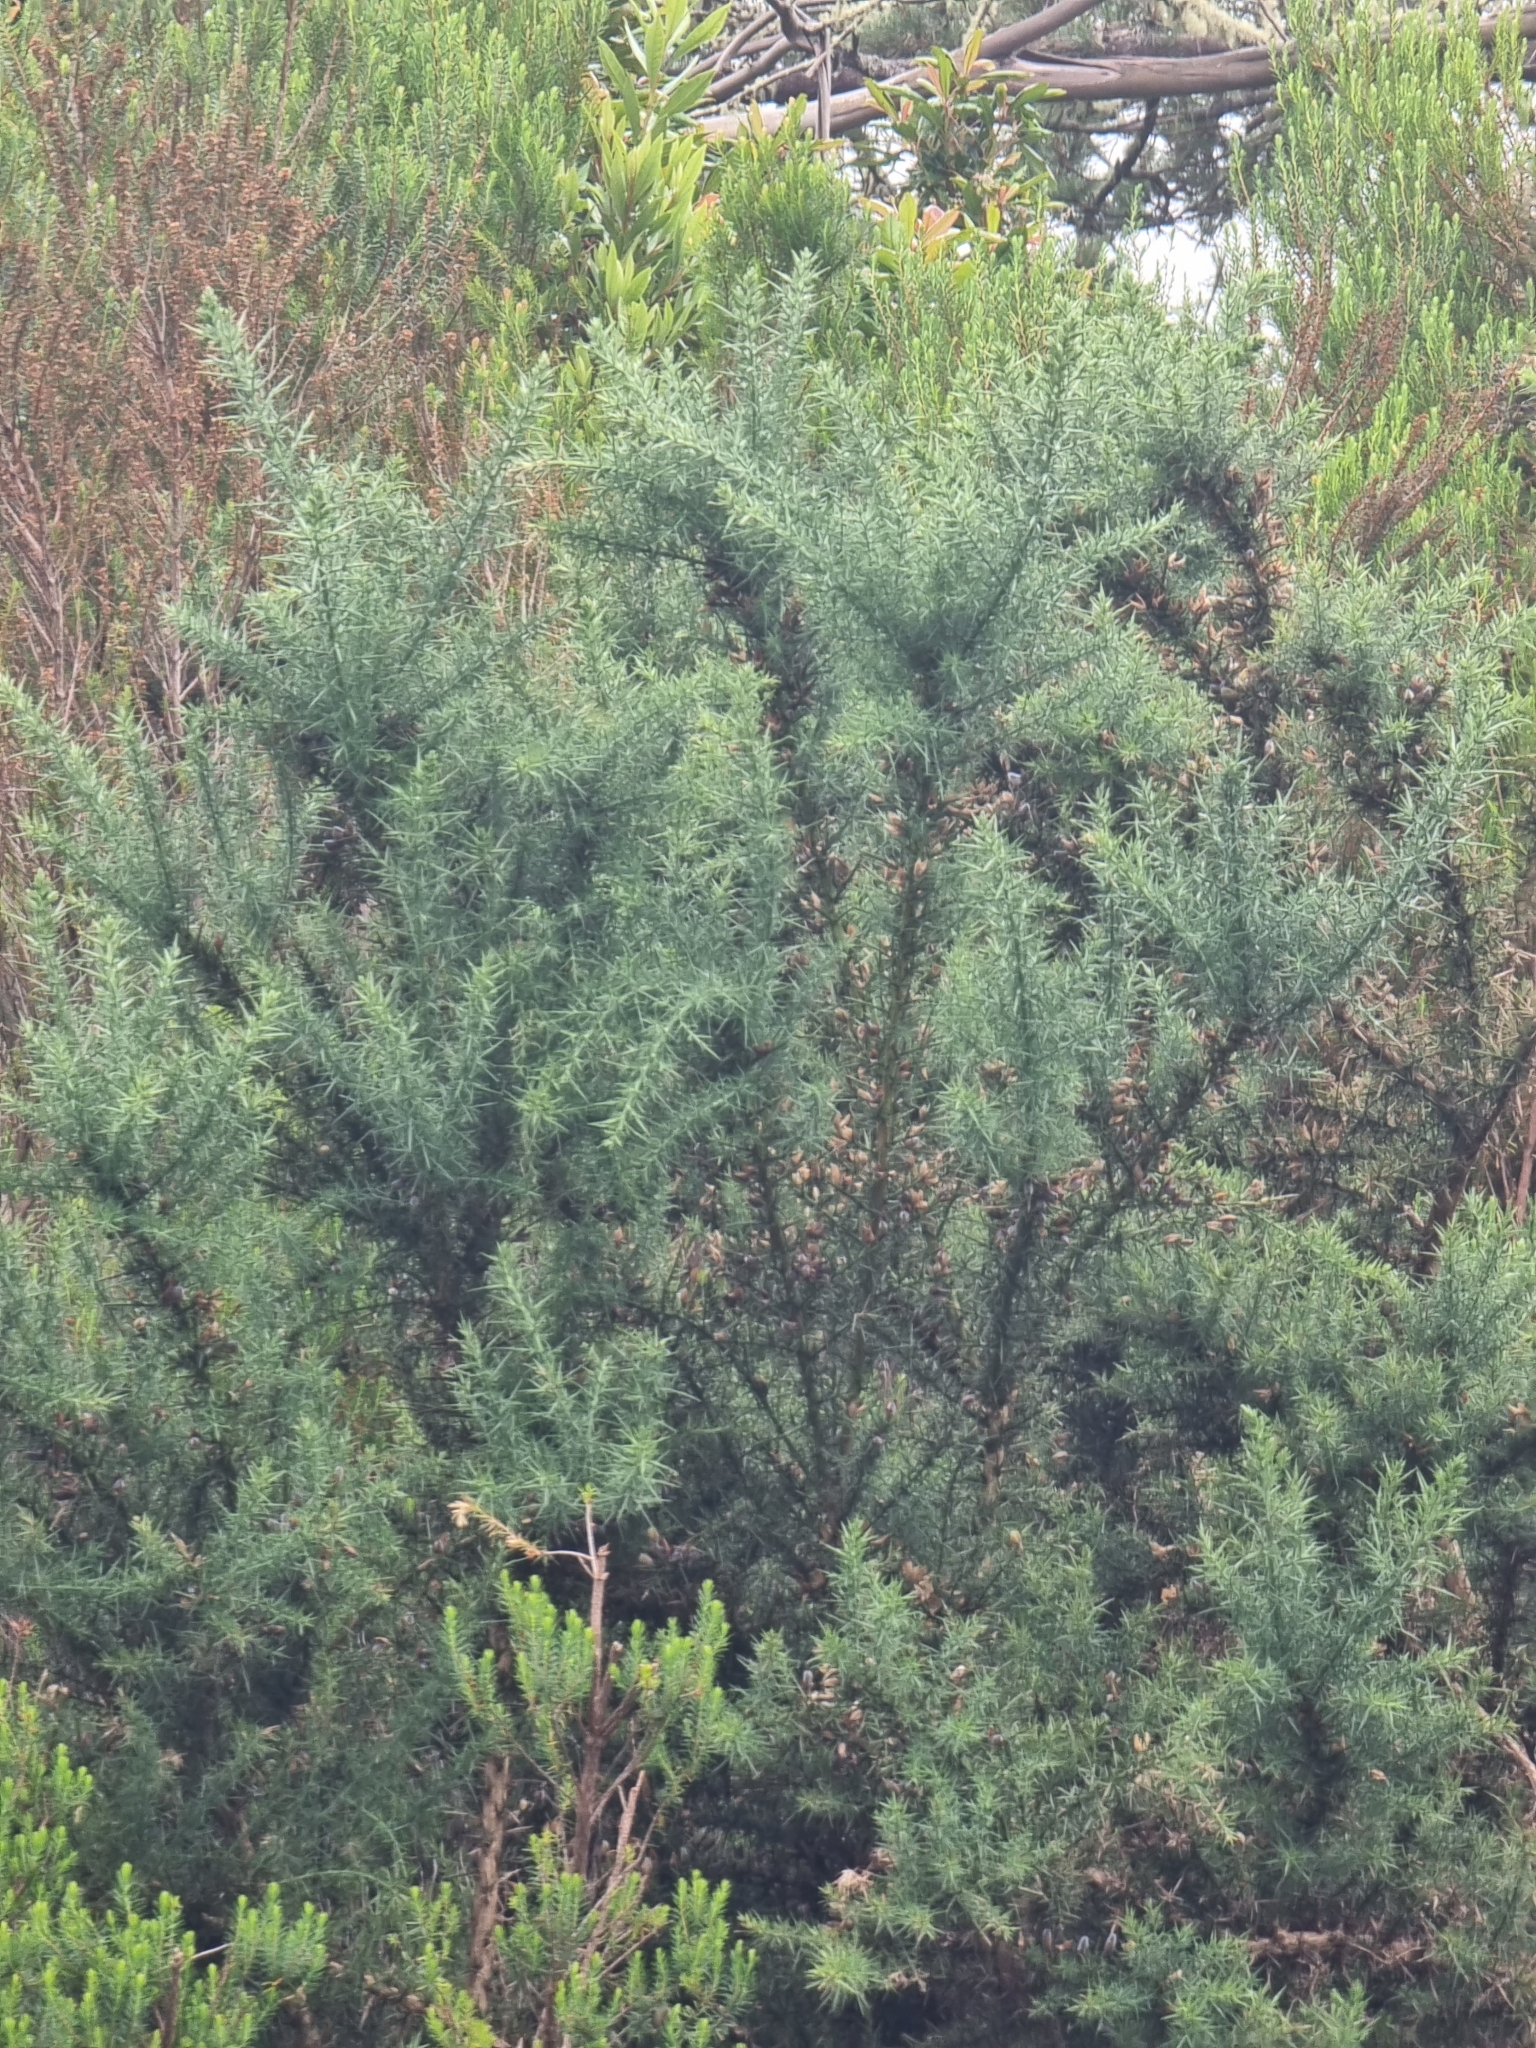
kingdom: Plantae
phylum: Tracheophyta
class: Magnoliopsida
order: Fabales
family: Fabaceae
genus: Ulex
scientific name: Ulex europaeus
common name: Common gorse
